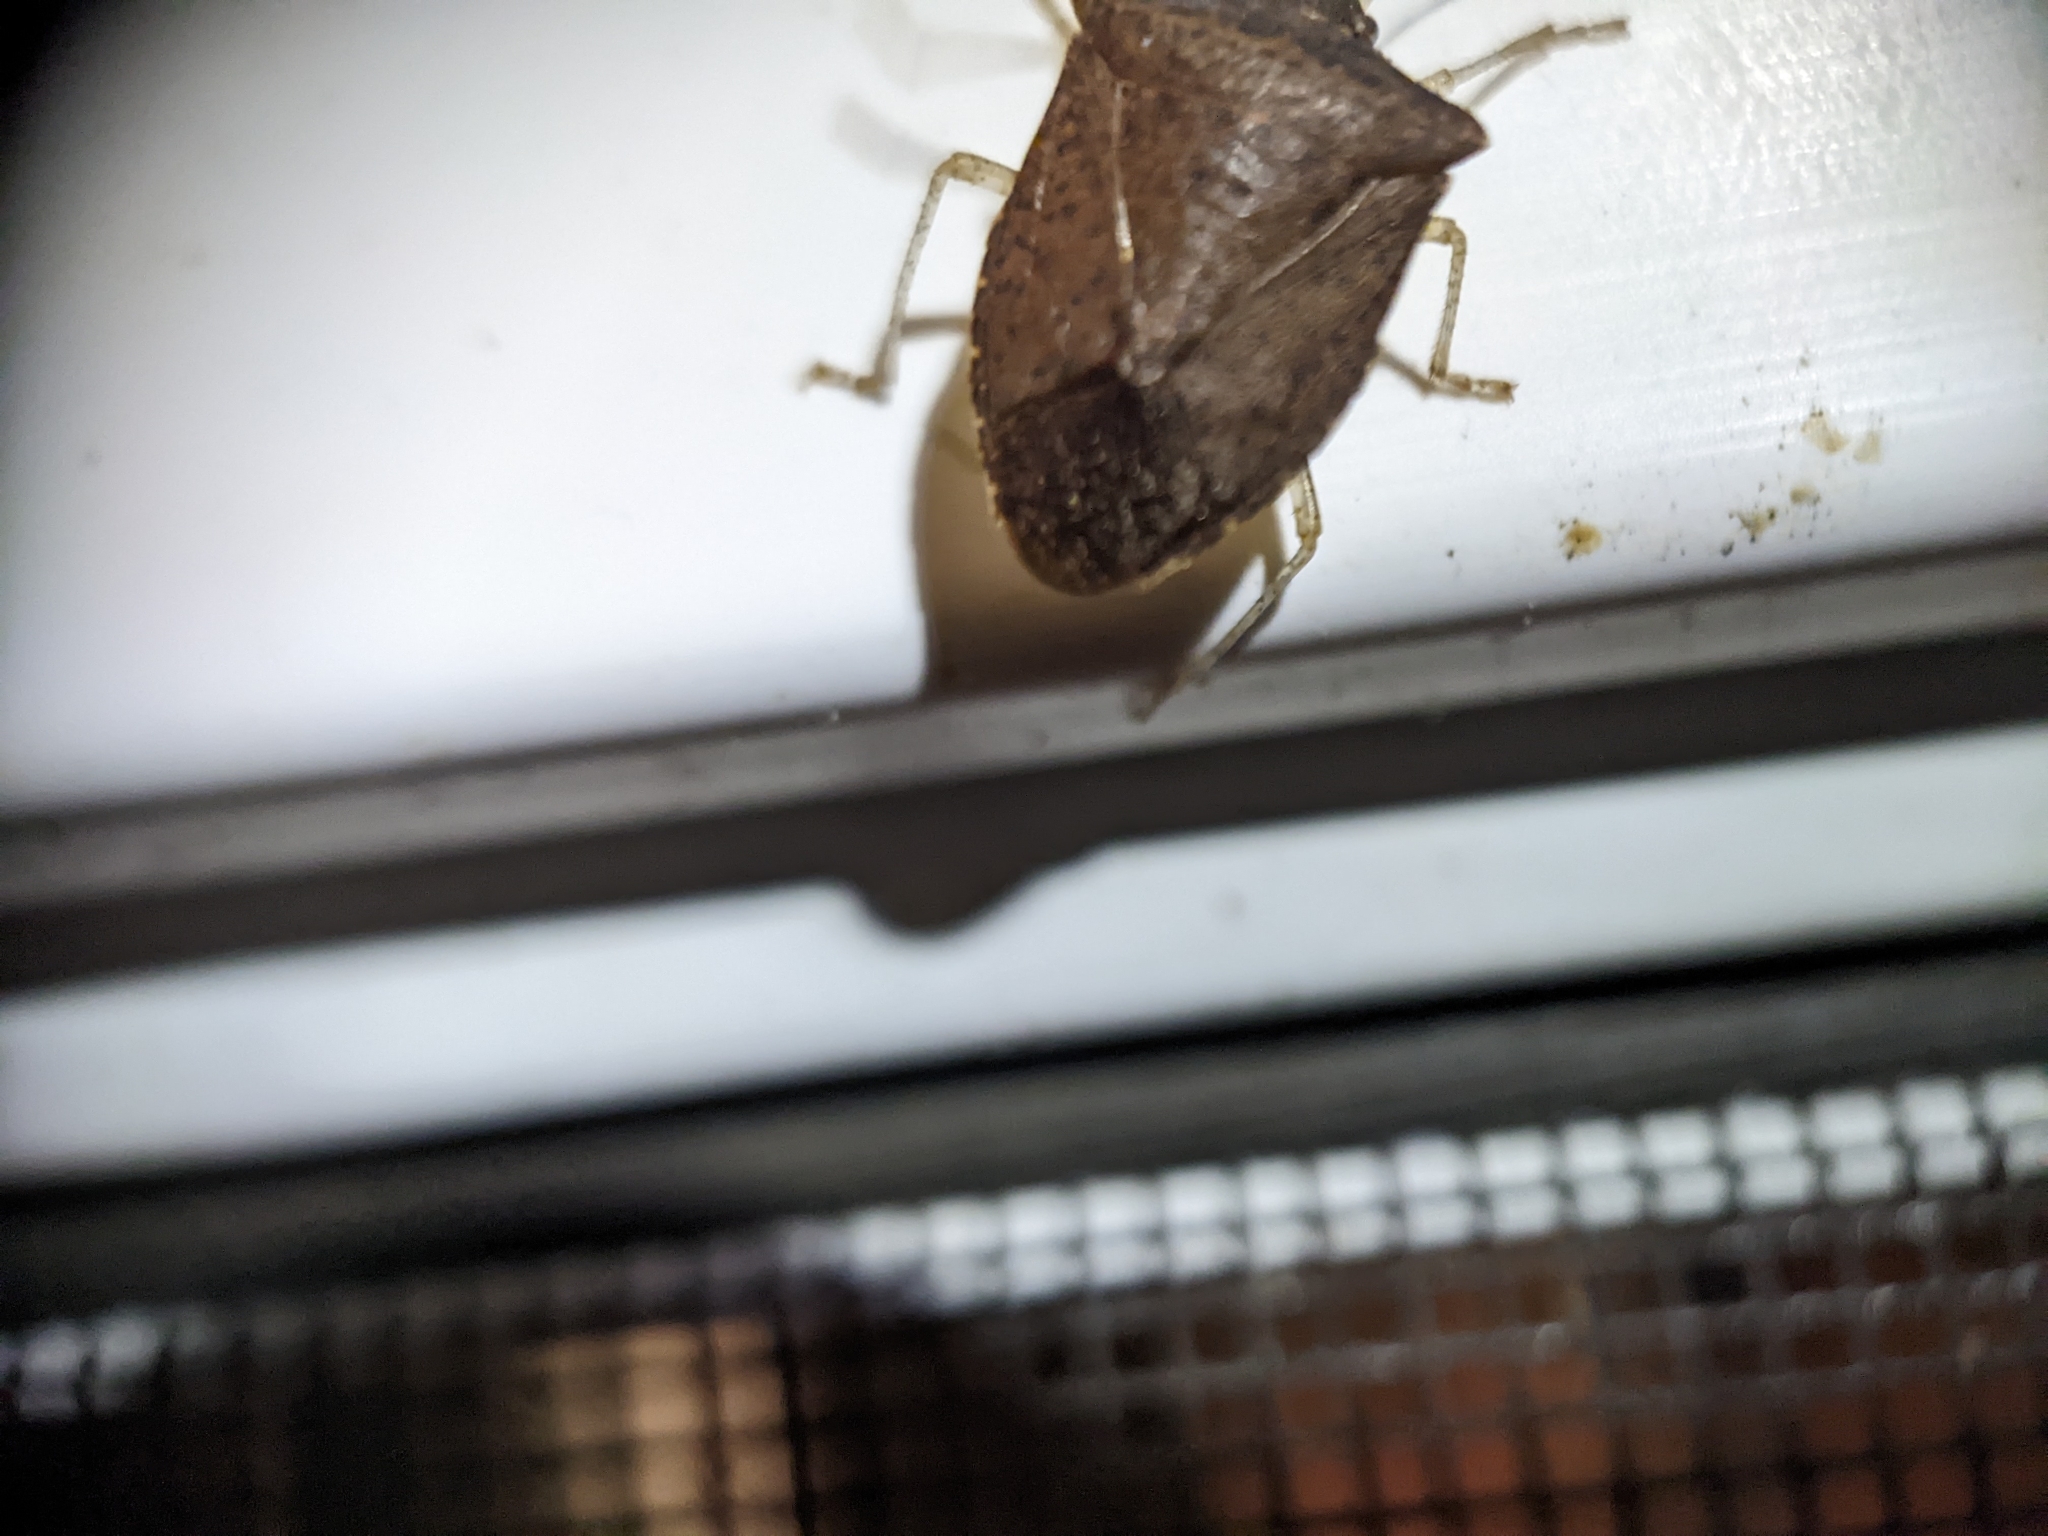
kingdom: Animalia
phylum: Arthropoda
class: Insecta
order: Hemiptera
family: Pentatomidae
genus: Euschistus
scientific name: Euschistus obscurus
